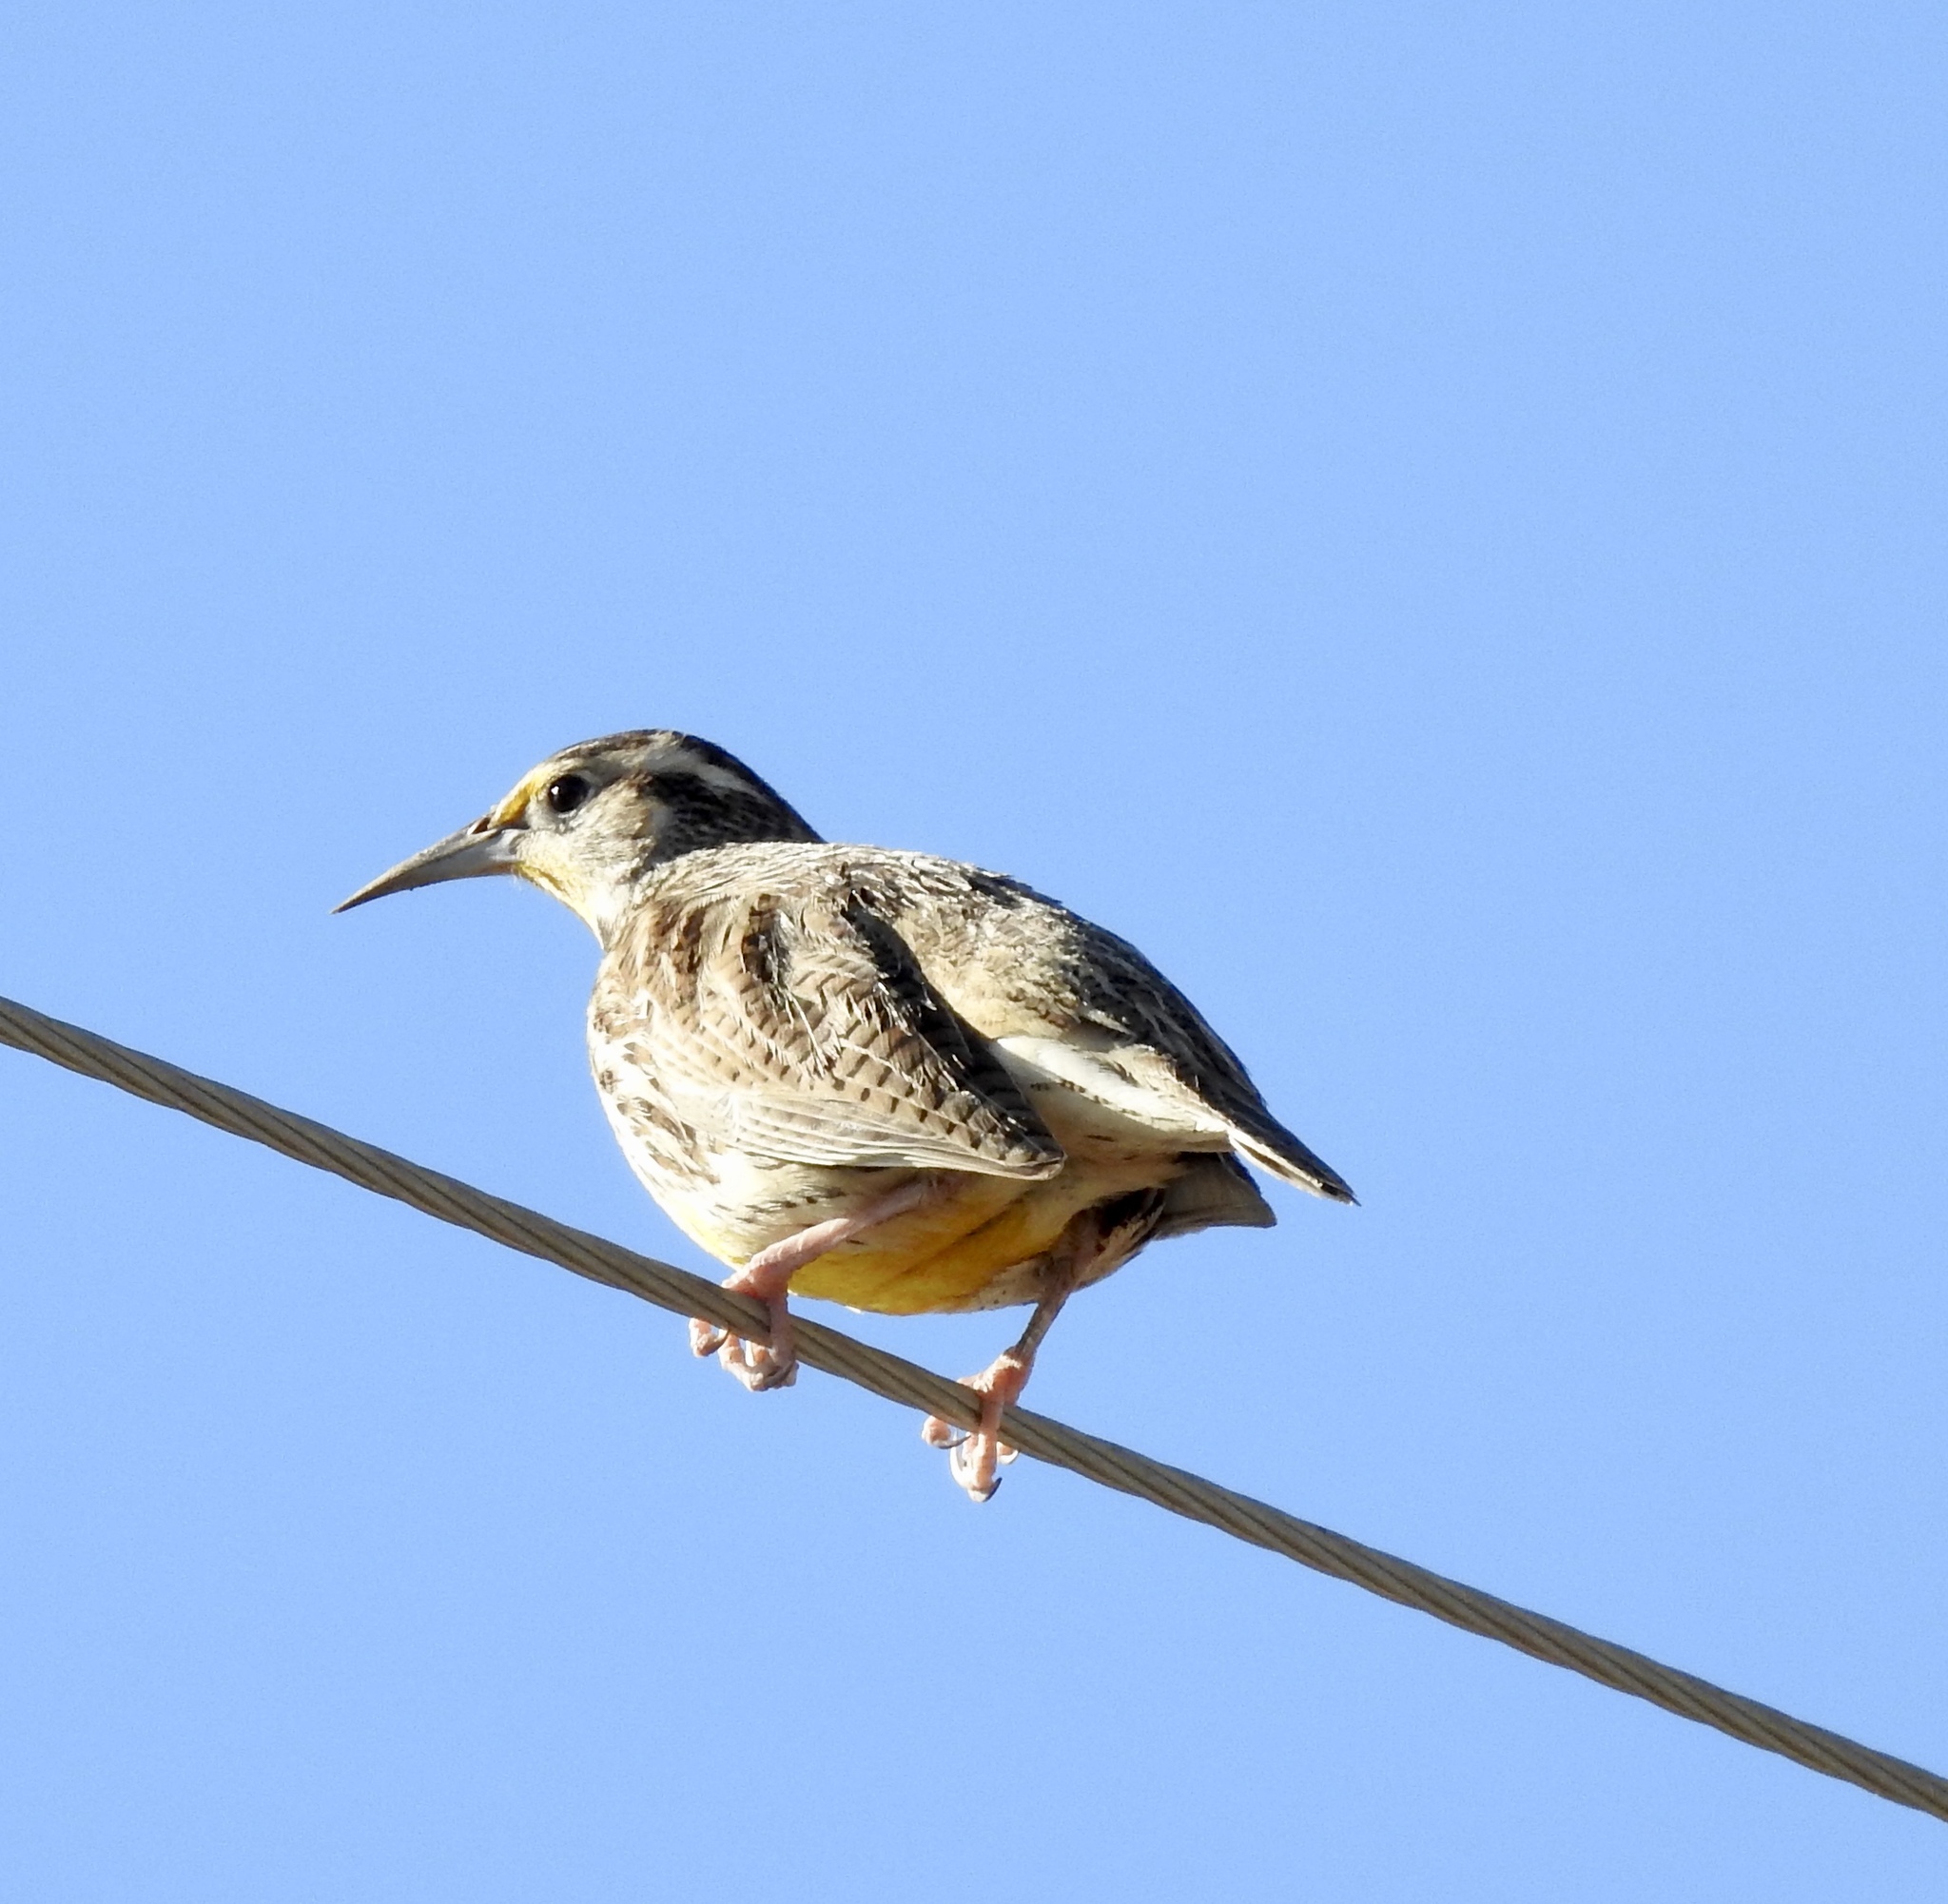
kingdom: Animalia
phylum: Chordata
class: Aves
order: Passeriformes
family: Icteridae
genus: Sturnella
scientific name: Sturnella neglecta
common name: Western meadowlark
